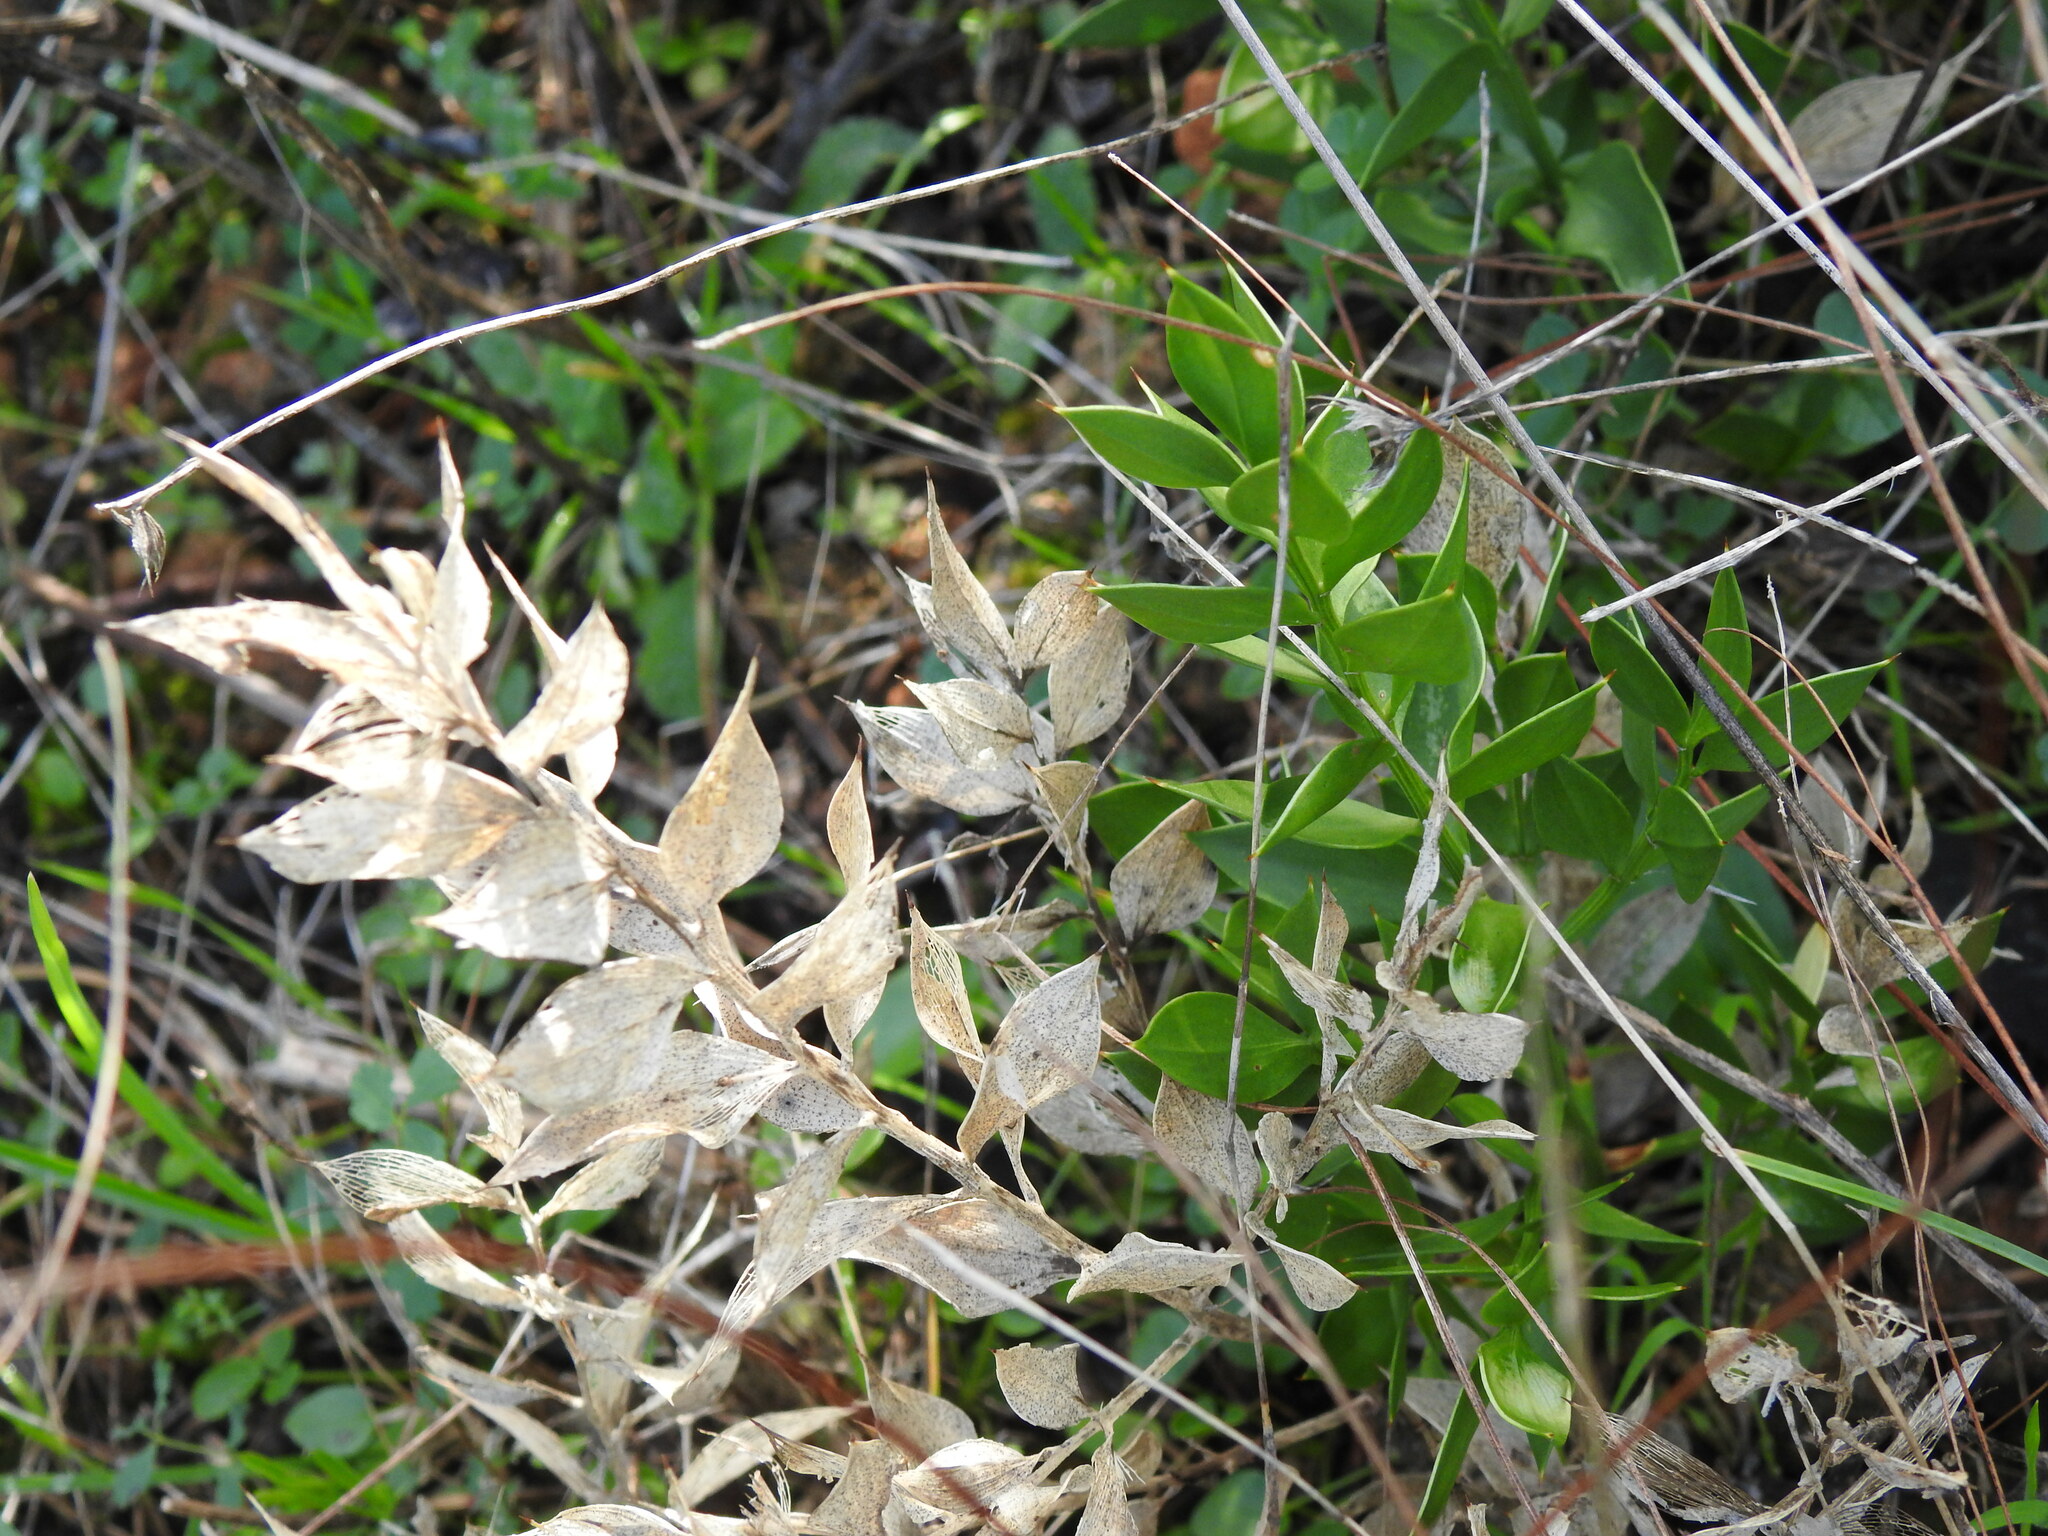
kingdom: Plantae
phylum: Tracheophyta
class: Liliopsida
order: Asparagales
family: Asparagaceae
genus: Ruscus
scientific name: Ruscus aculeatus
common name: Butcher's-broom
